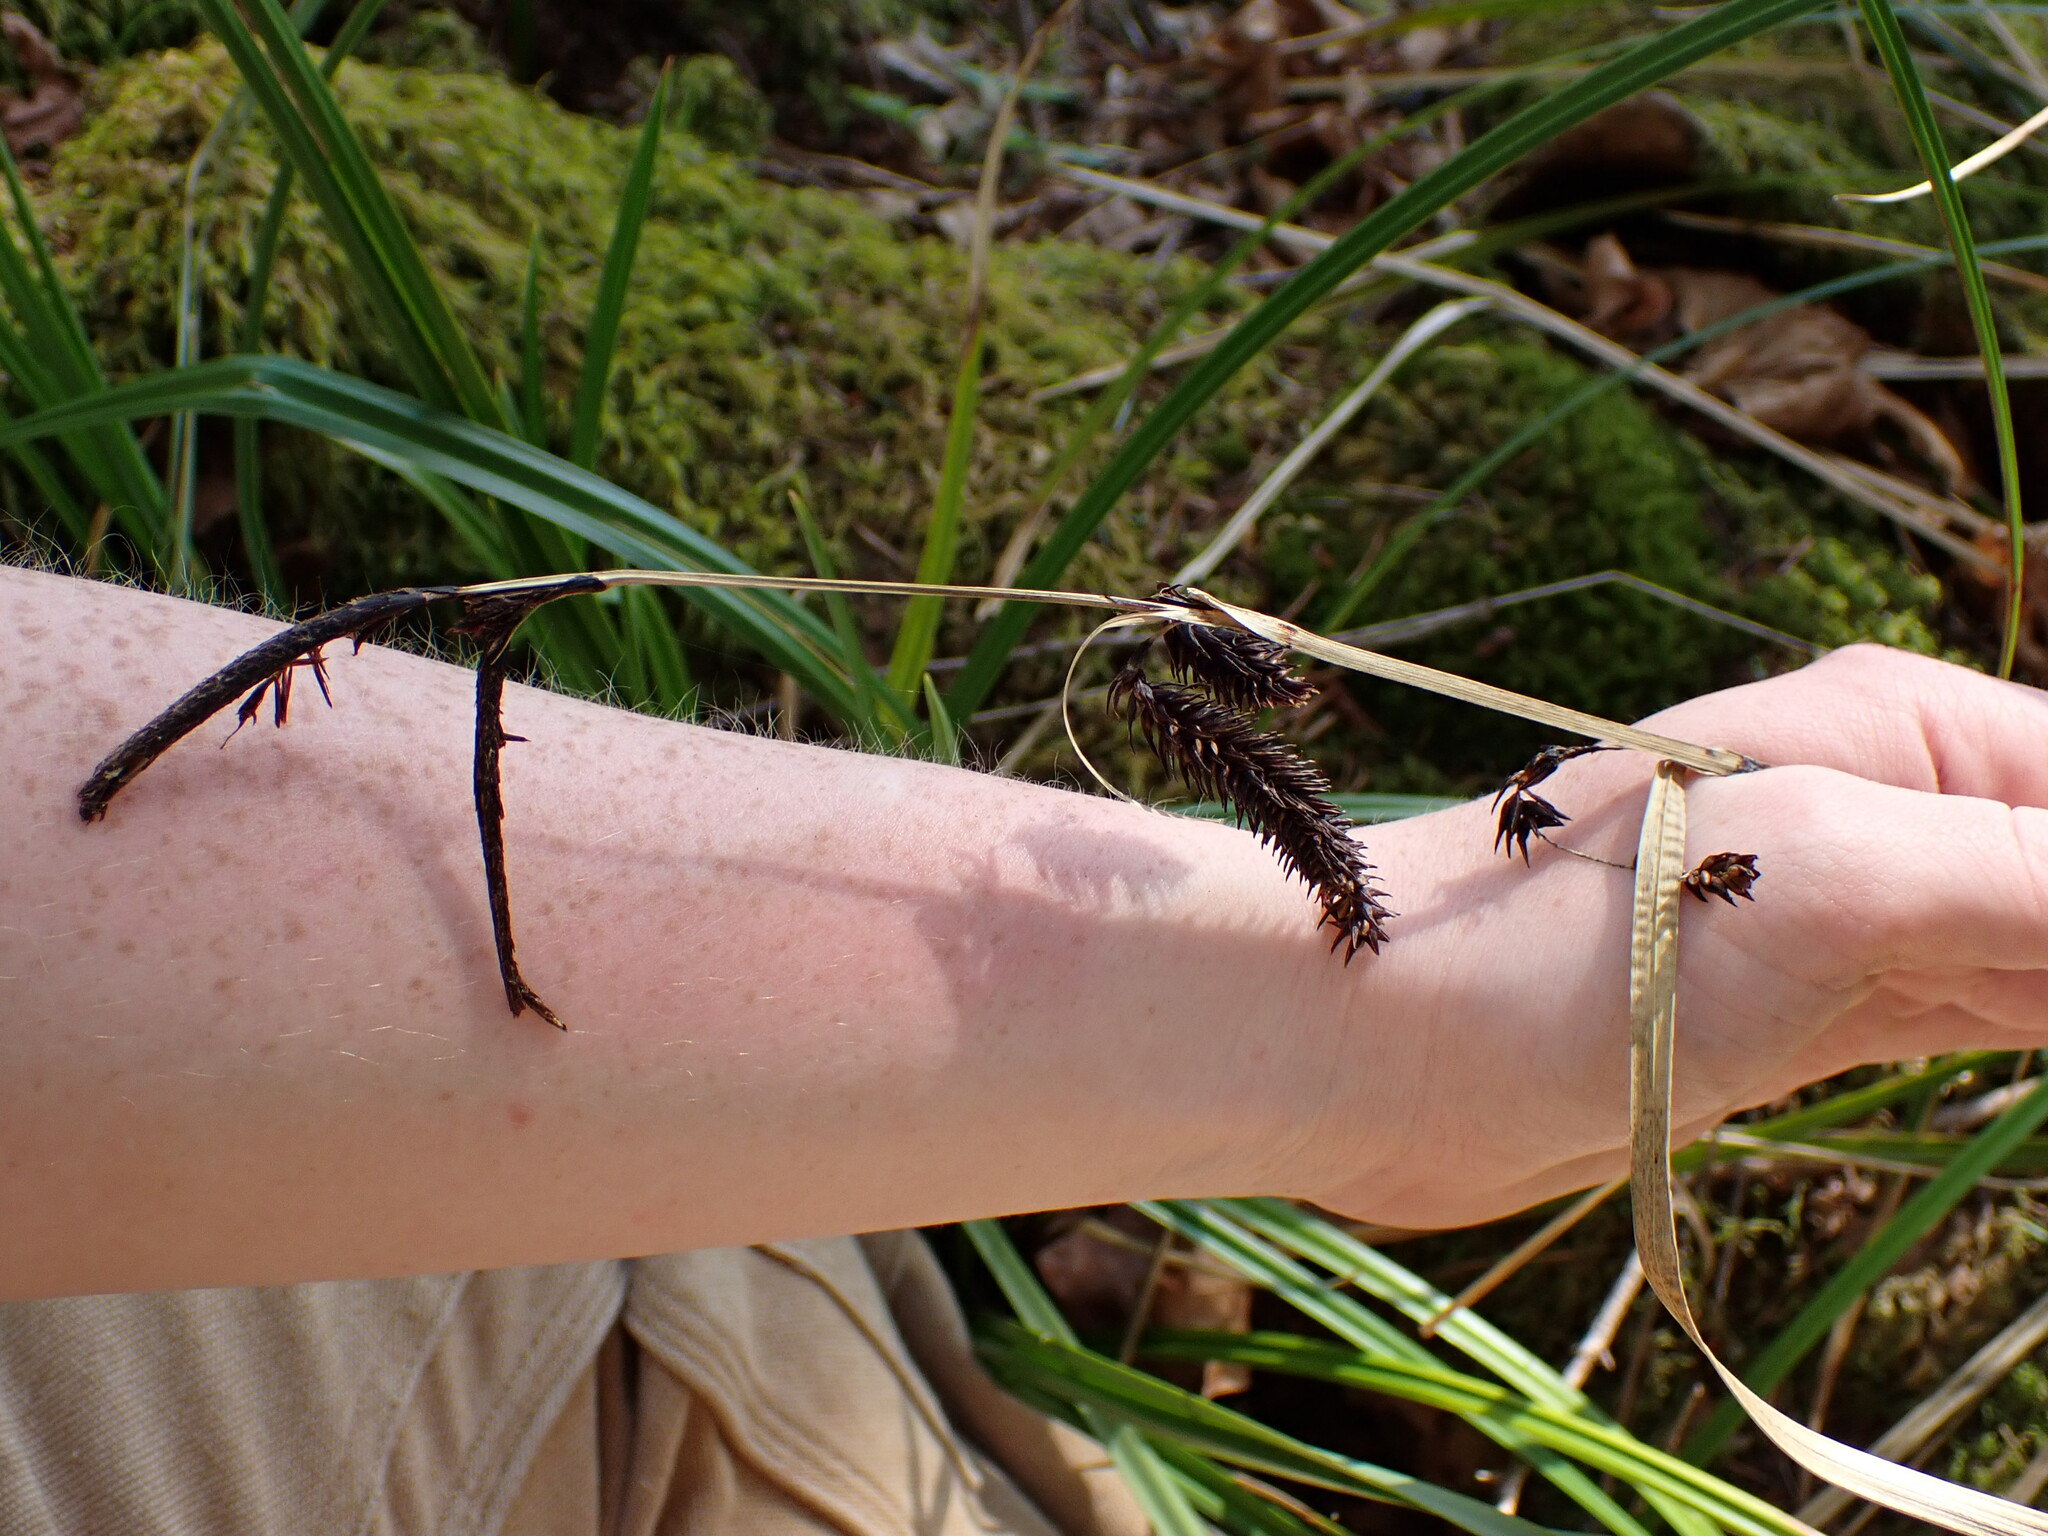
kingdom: Plantae
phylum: Tracheophyta
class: Liliopsida
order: Poales
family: Cyperaceae
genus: Carex
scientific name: Carex obnupta
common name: Slough sedge
